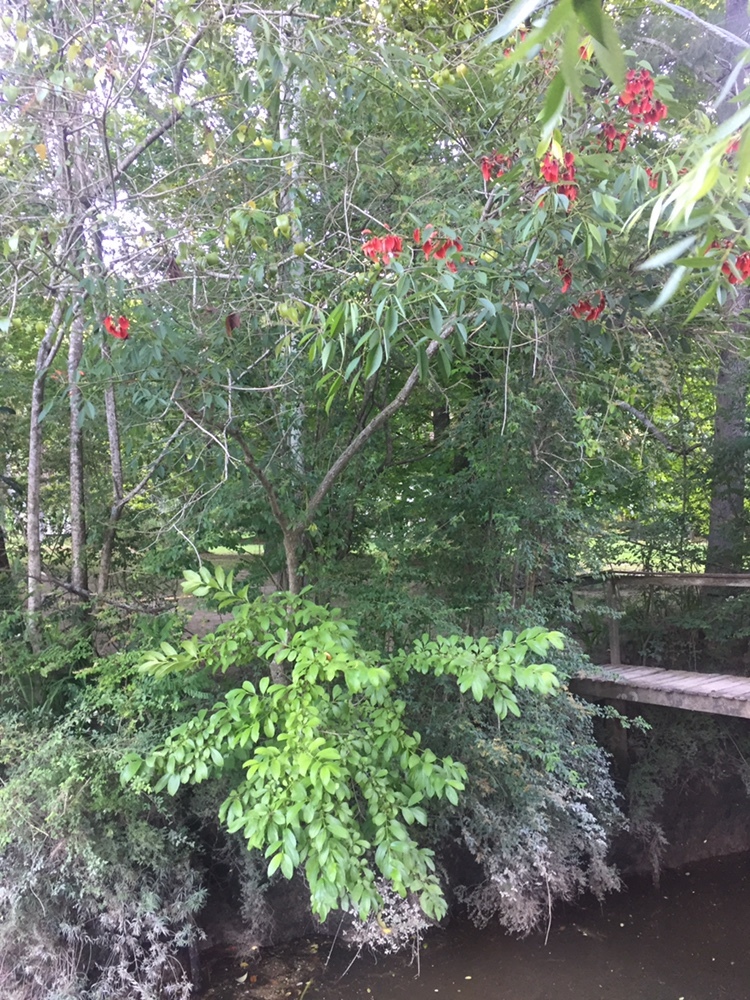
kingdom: Plantae
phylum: Tracheophyta
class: Magnoliopsida
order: Fabales
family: Fabaceae
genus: Erythrina
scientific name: Erythrina crista-galli
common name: Cockspur coral tree
